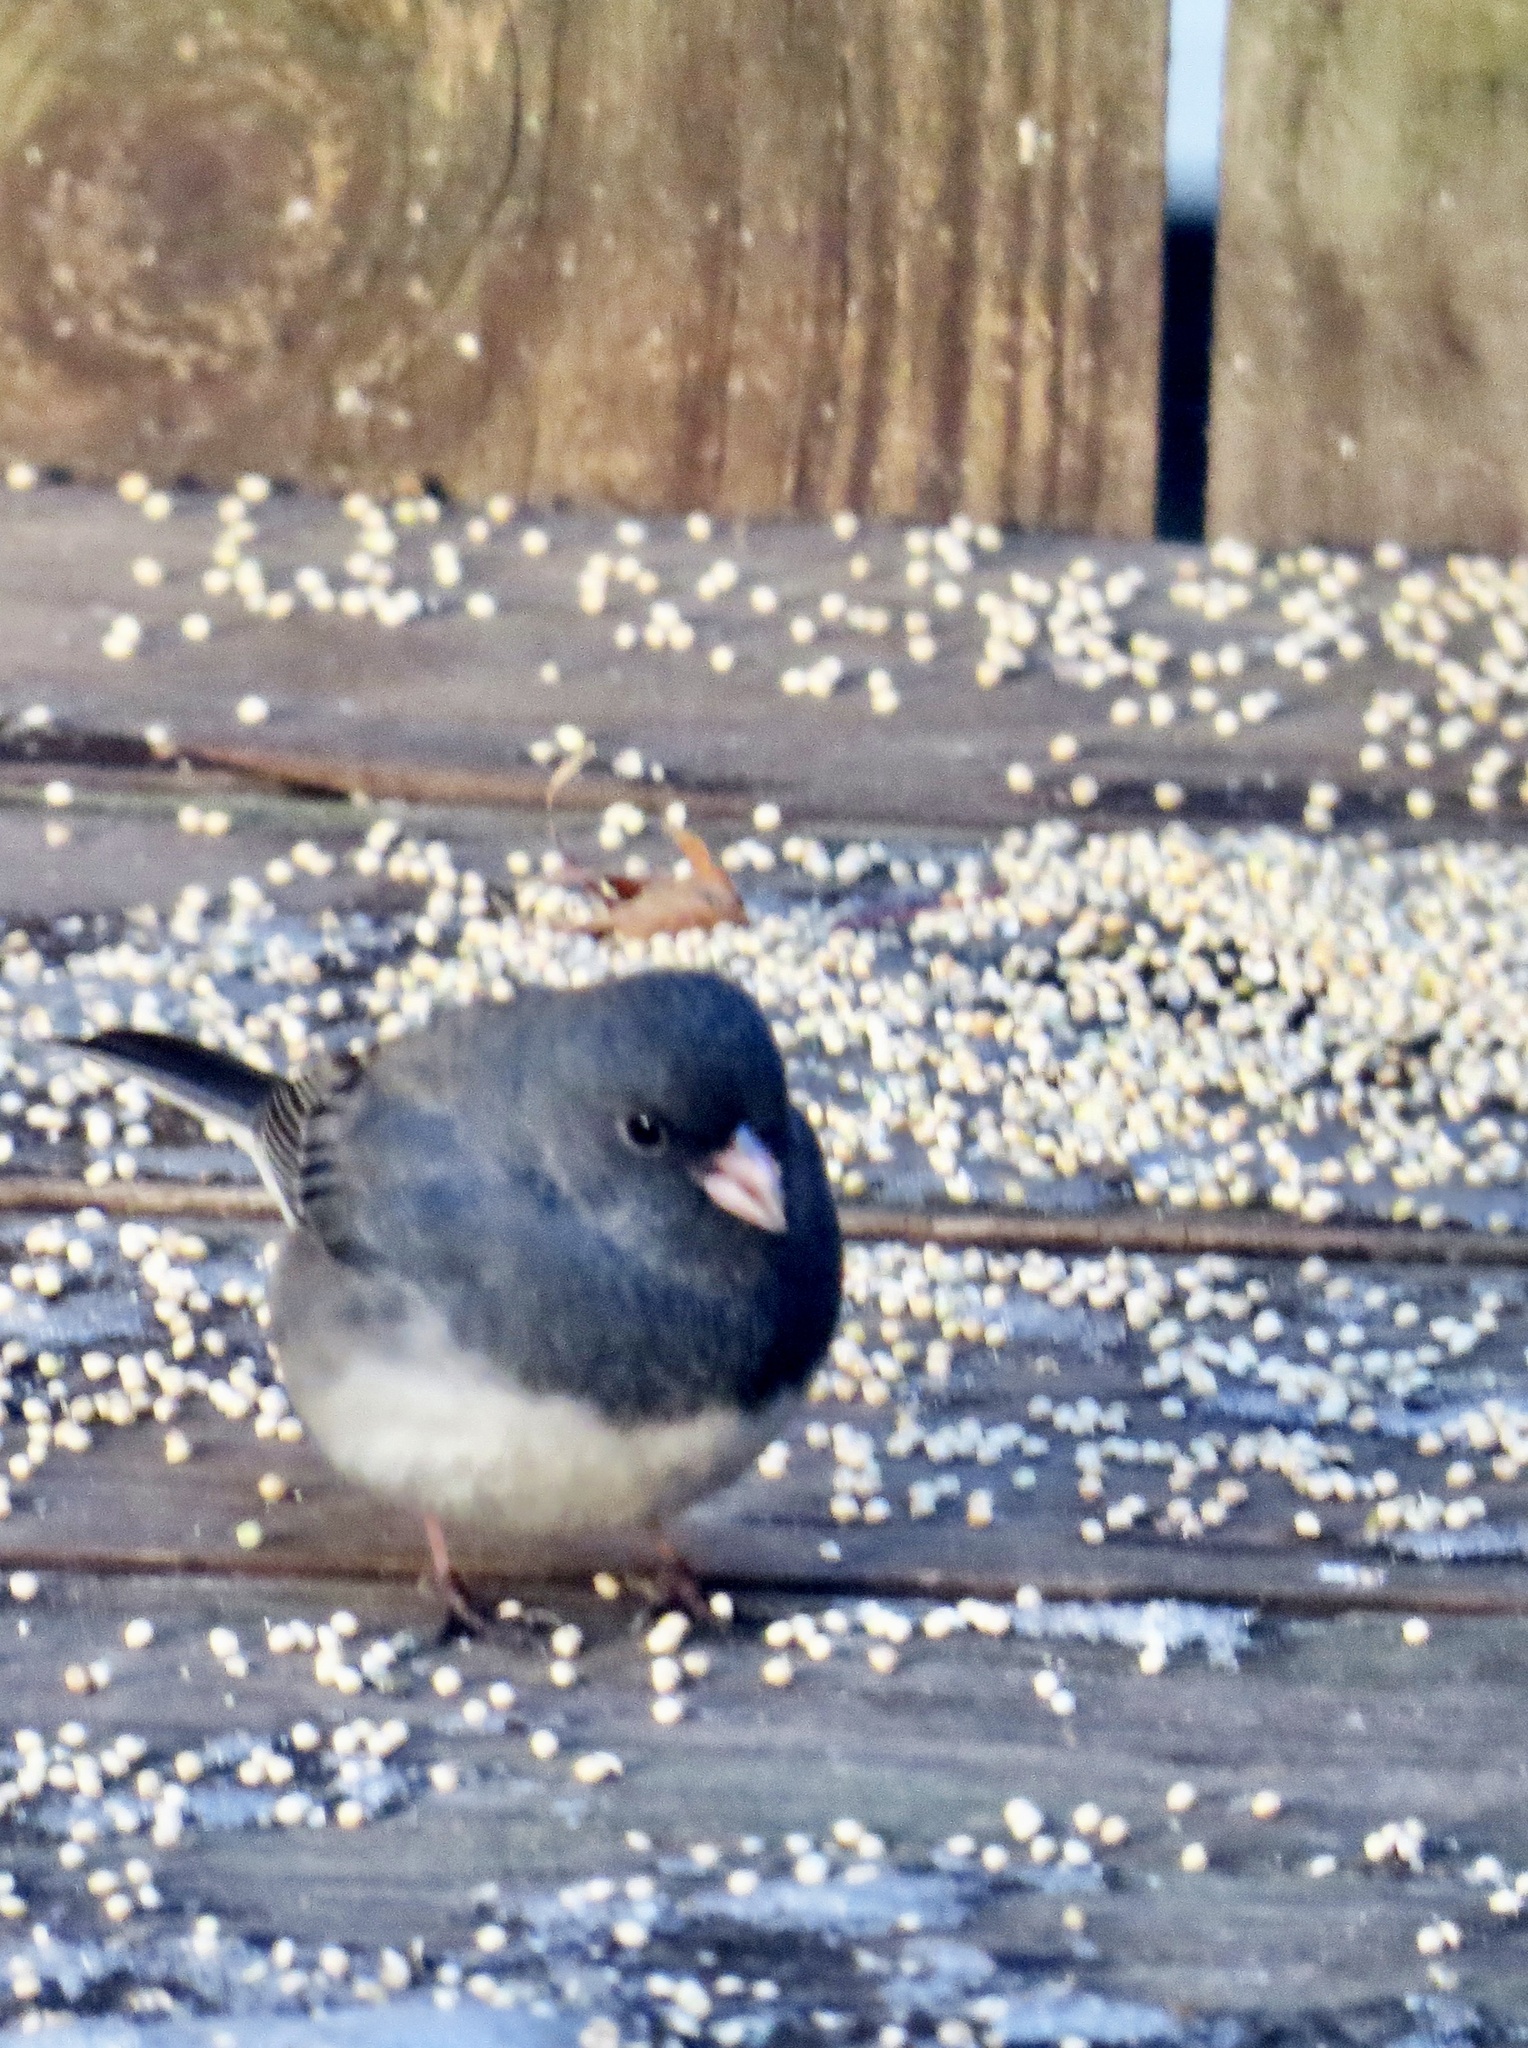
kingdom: Animalia
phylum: Chordata
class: Aves
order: Passeriformes
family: Passerellidae
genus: Junco
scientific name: Junco hyemalis
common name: Dark-eyed junco
